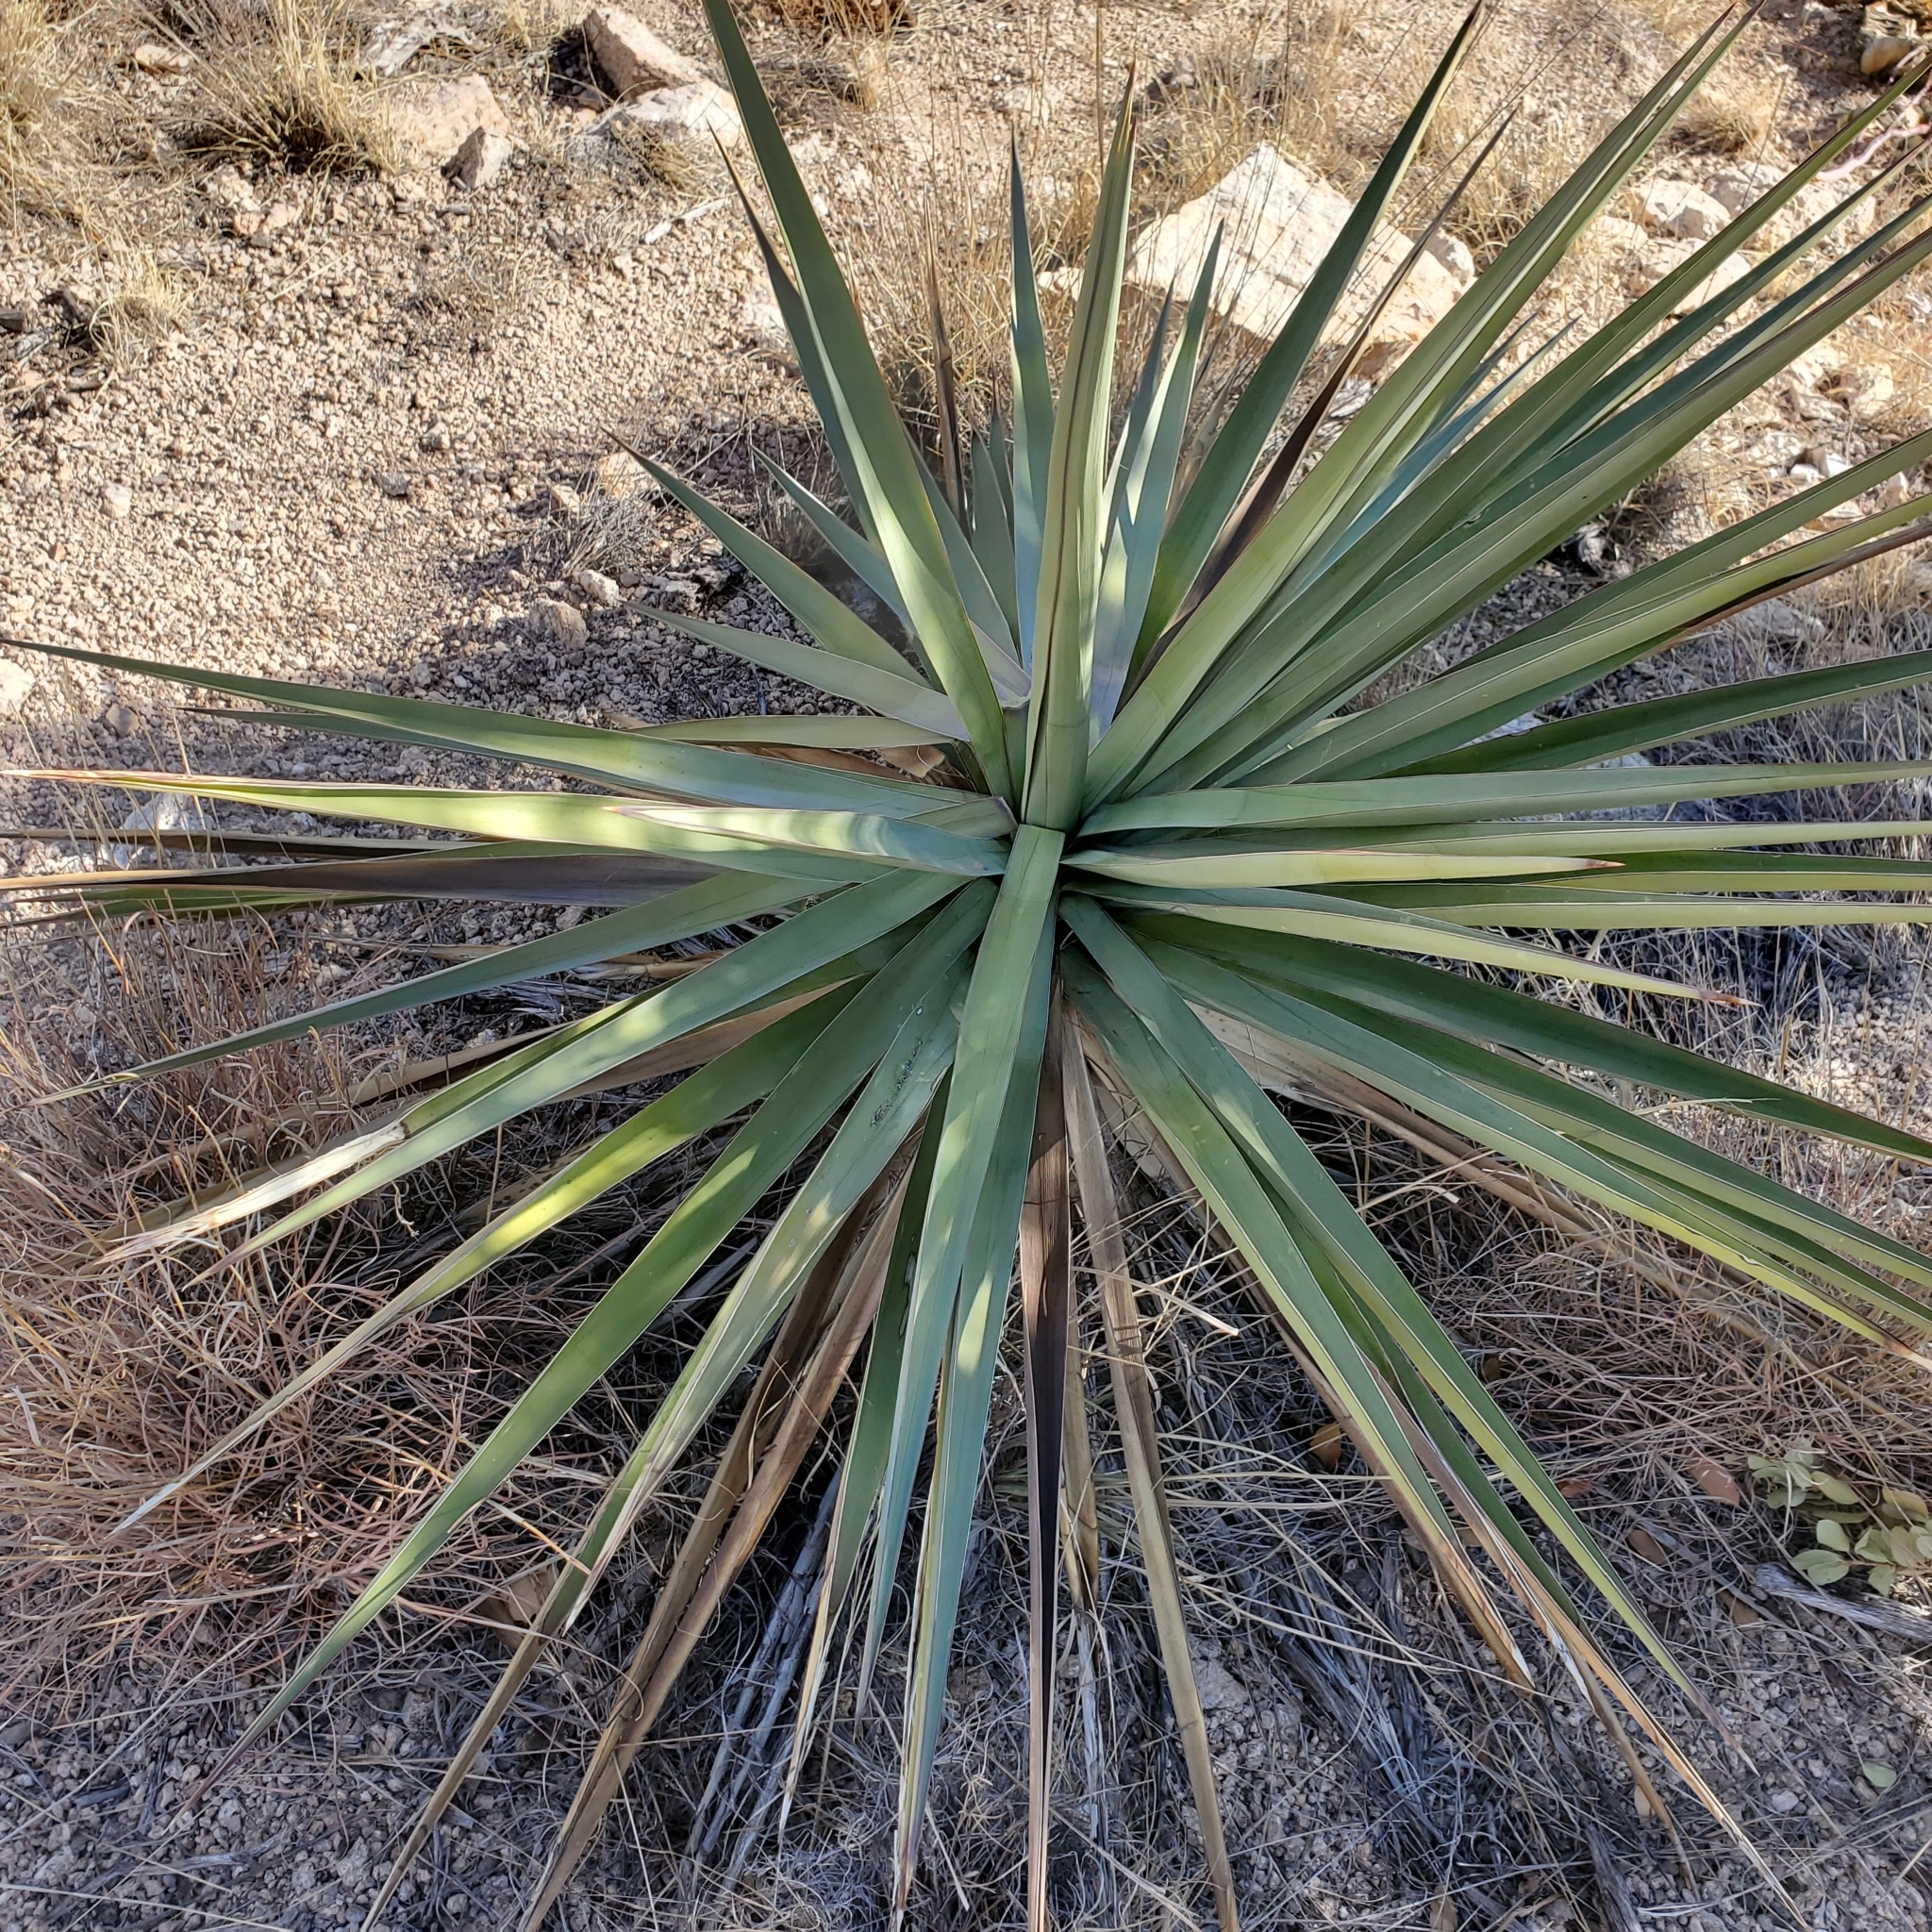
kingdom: Plantae
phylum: Tracheophyta
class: Liliopsida
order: Asparagales
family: Asparagaceae
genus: Yucca
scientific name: Yucca madrensis
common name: Hoary yucca
